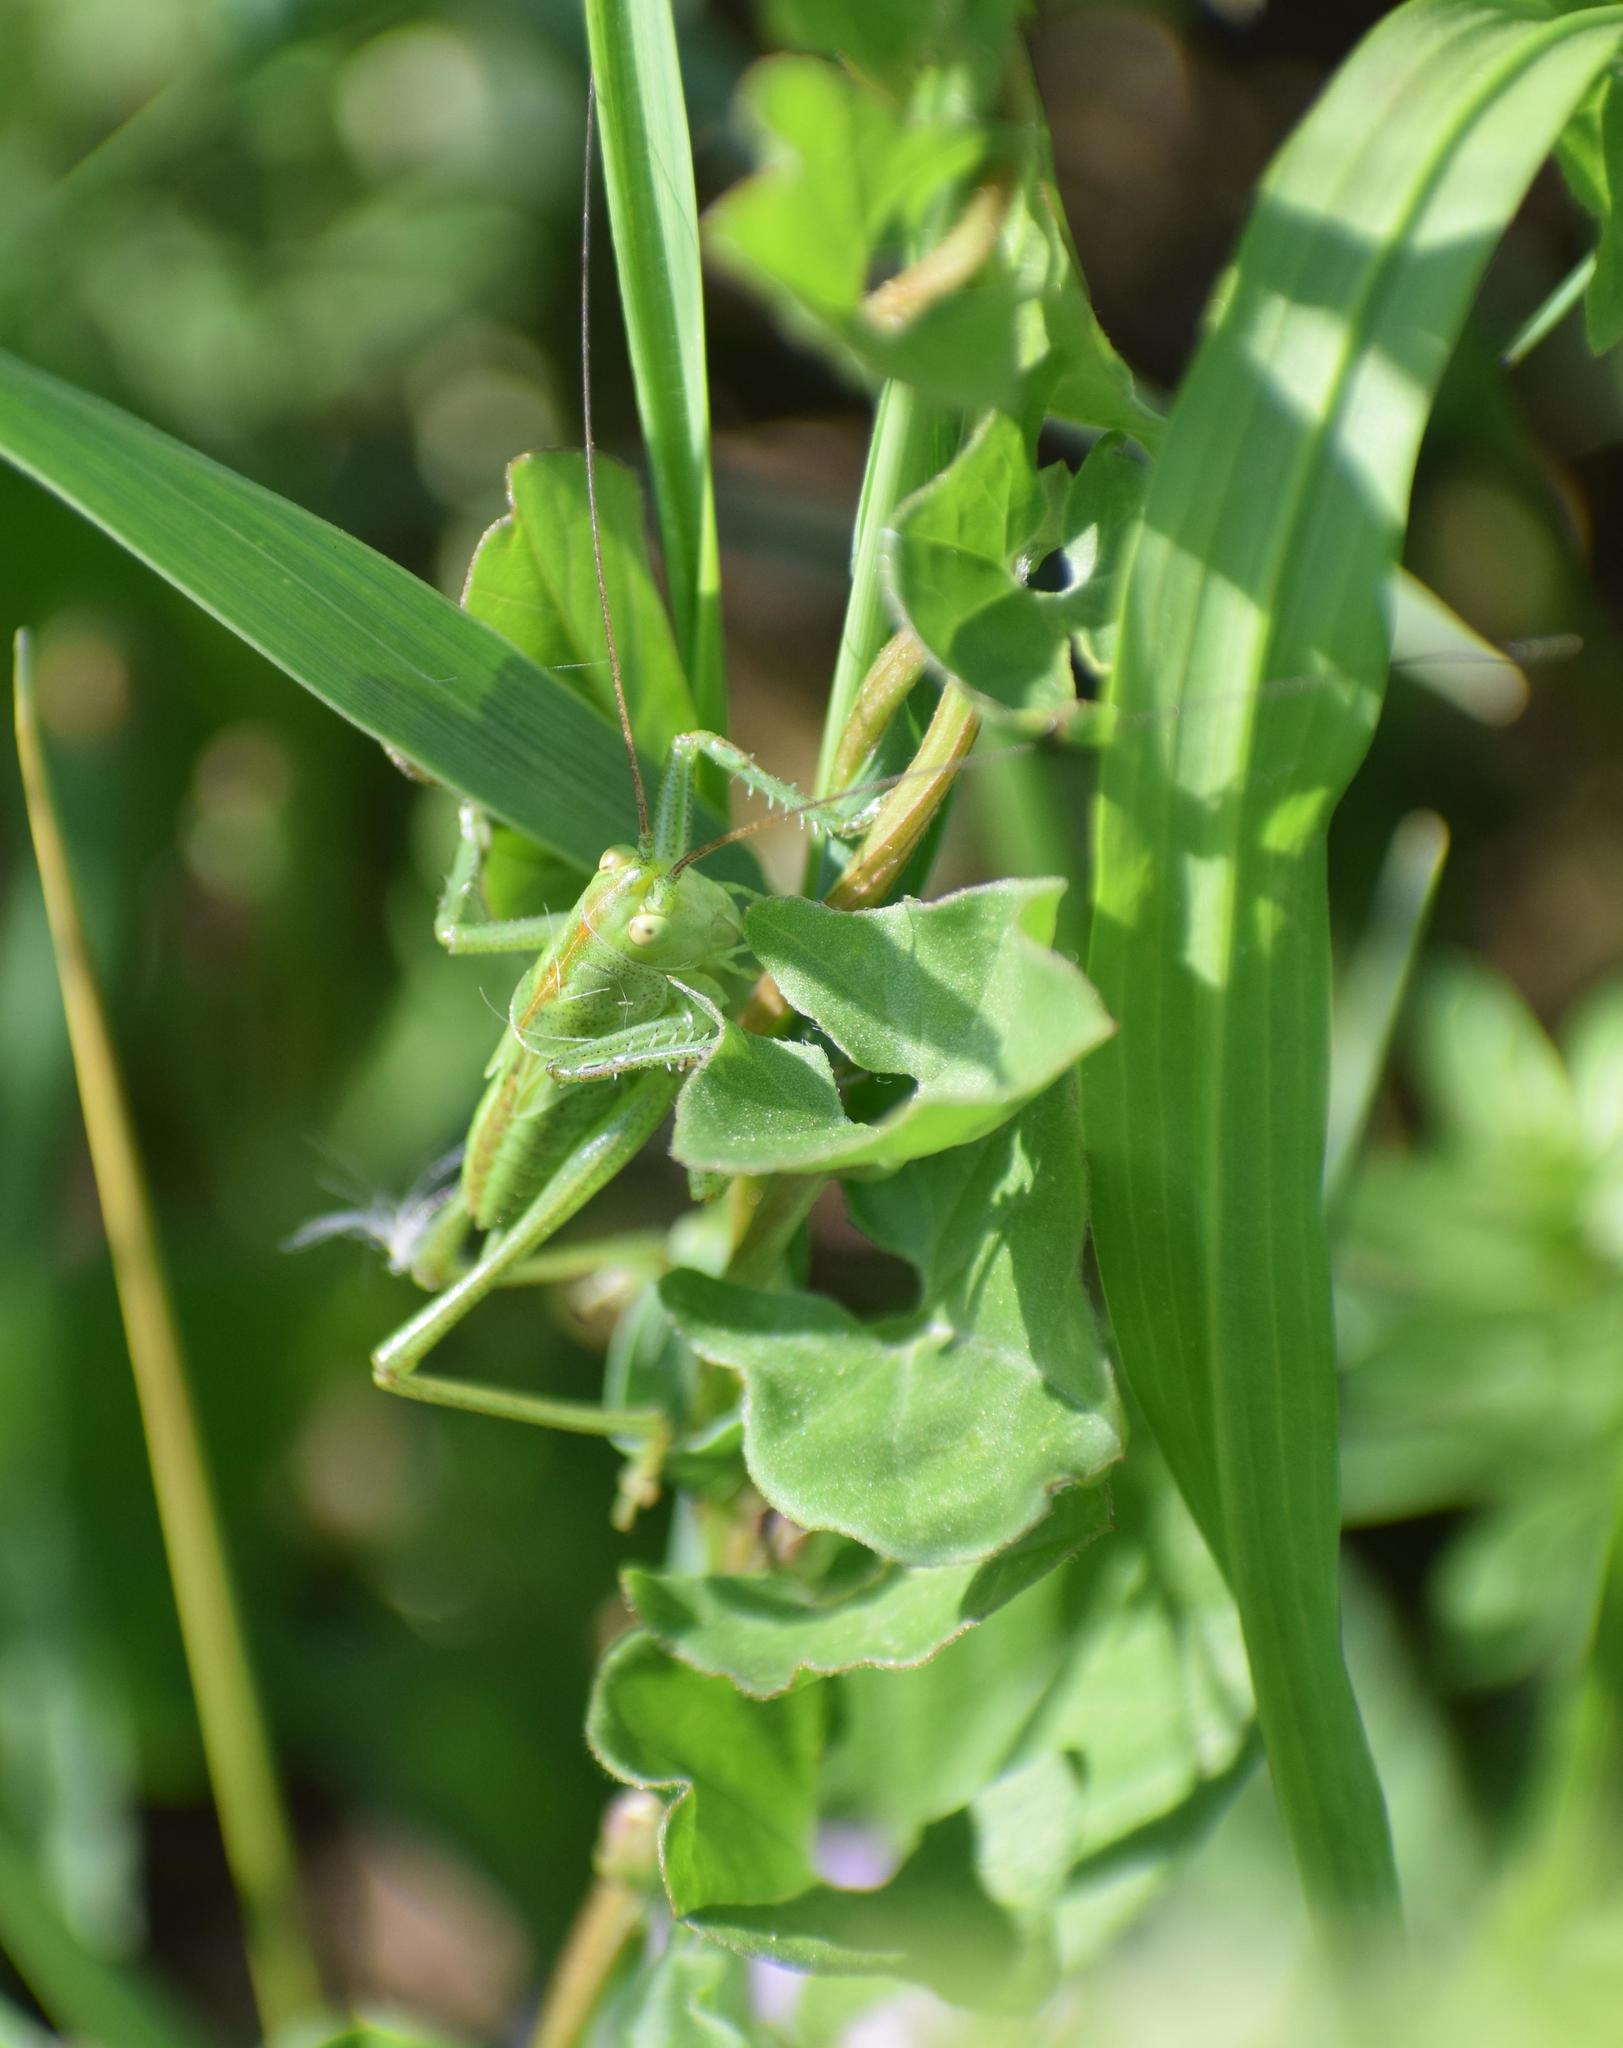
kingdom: Animalia
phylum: Arthropoda
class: Insecta
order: Orthoptera
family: Tettigoniidae
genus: Tettigonia
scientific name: Tettigonia viridissima
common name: Great green bush-cricket
